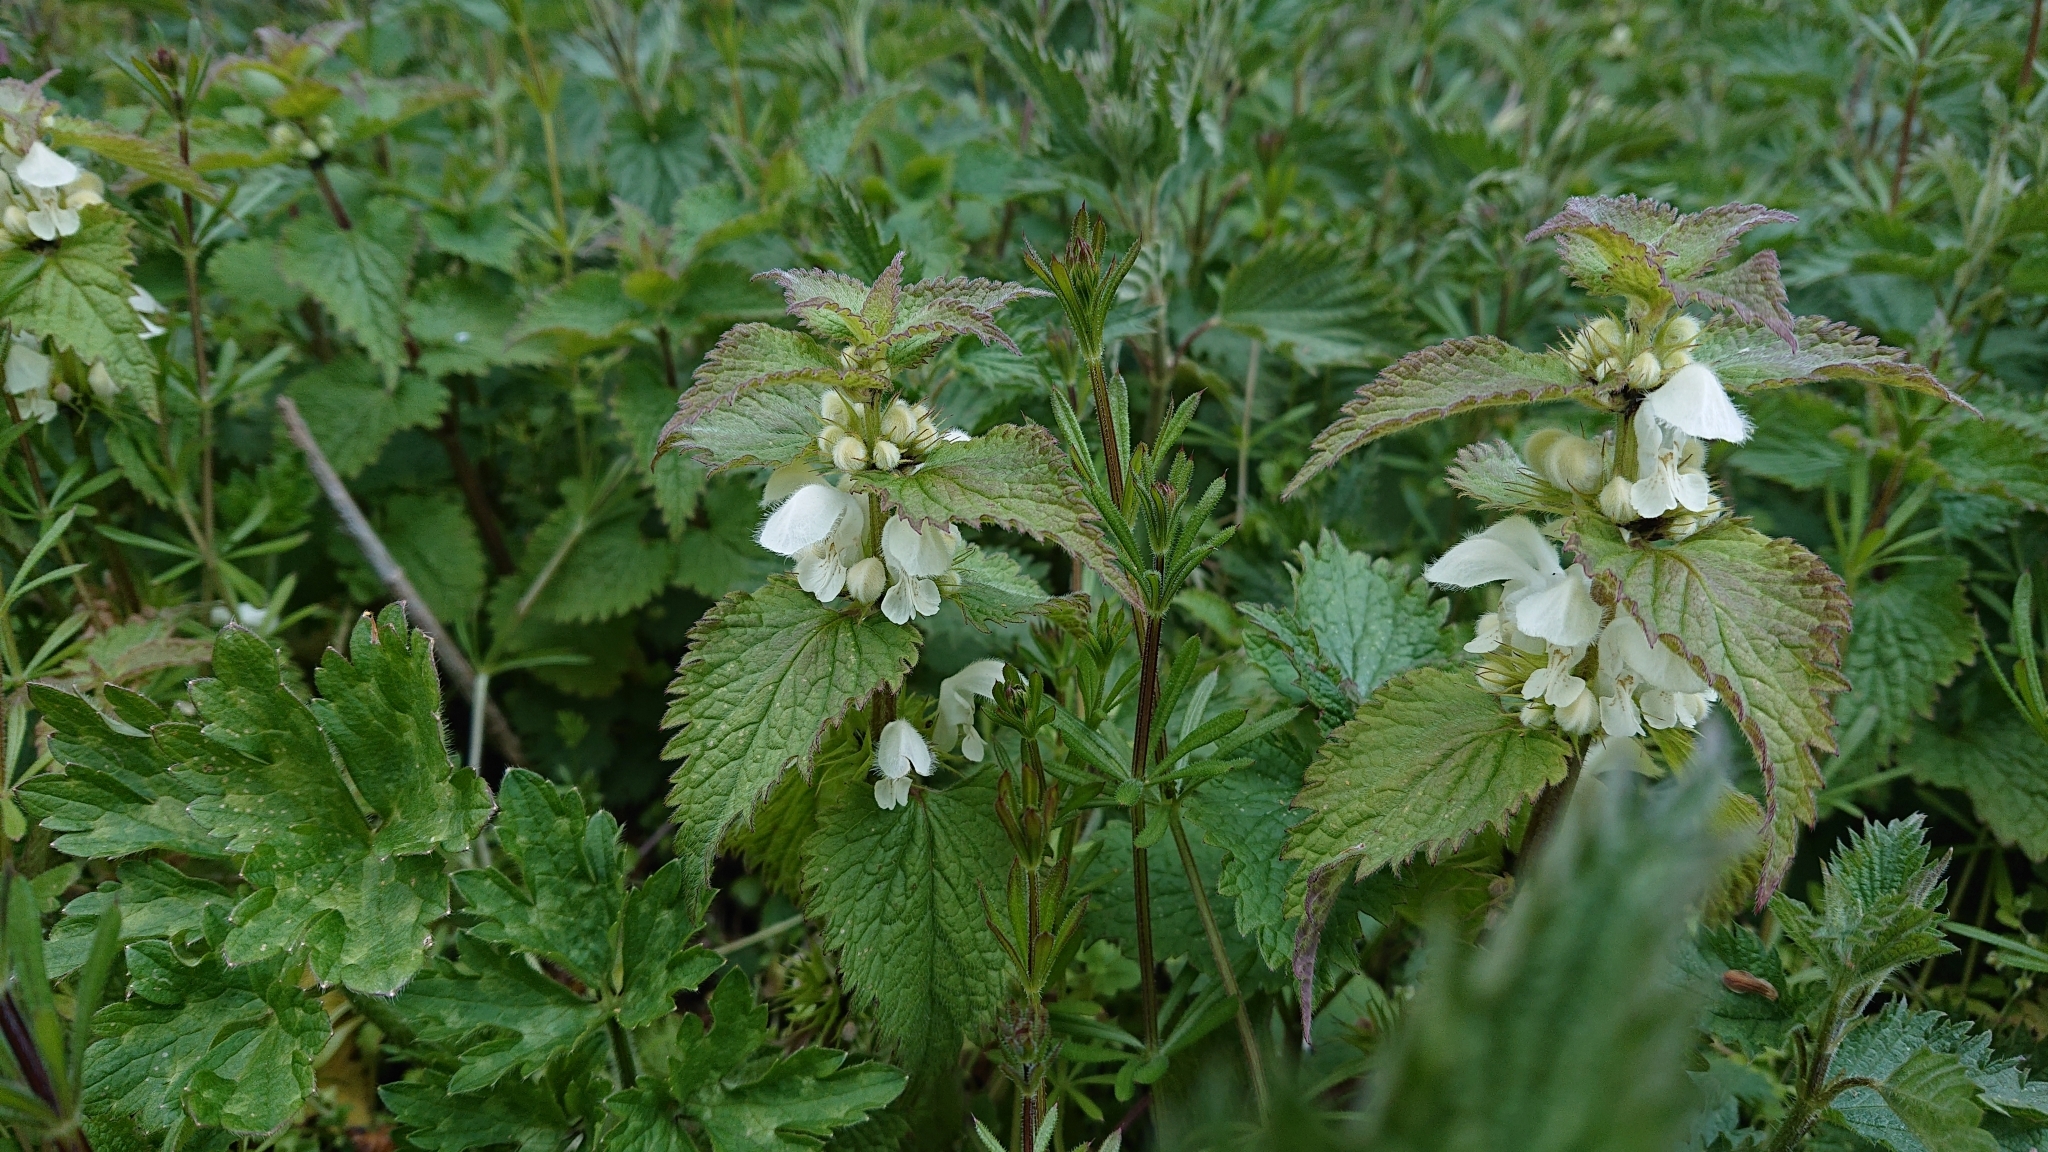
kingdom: Plantae
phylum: Tracheophyta
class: Magnoliopsida
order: Lamiales
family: Lamiaceae
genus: Lamium
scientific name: Lamium album
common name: White dead-nettle
